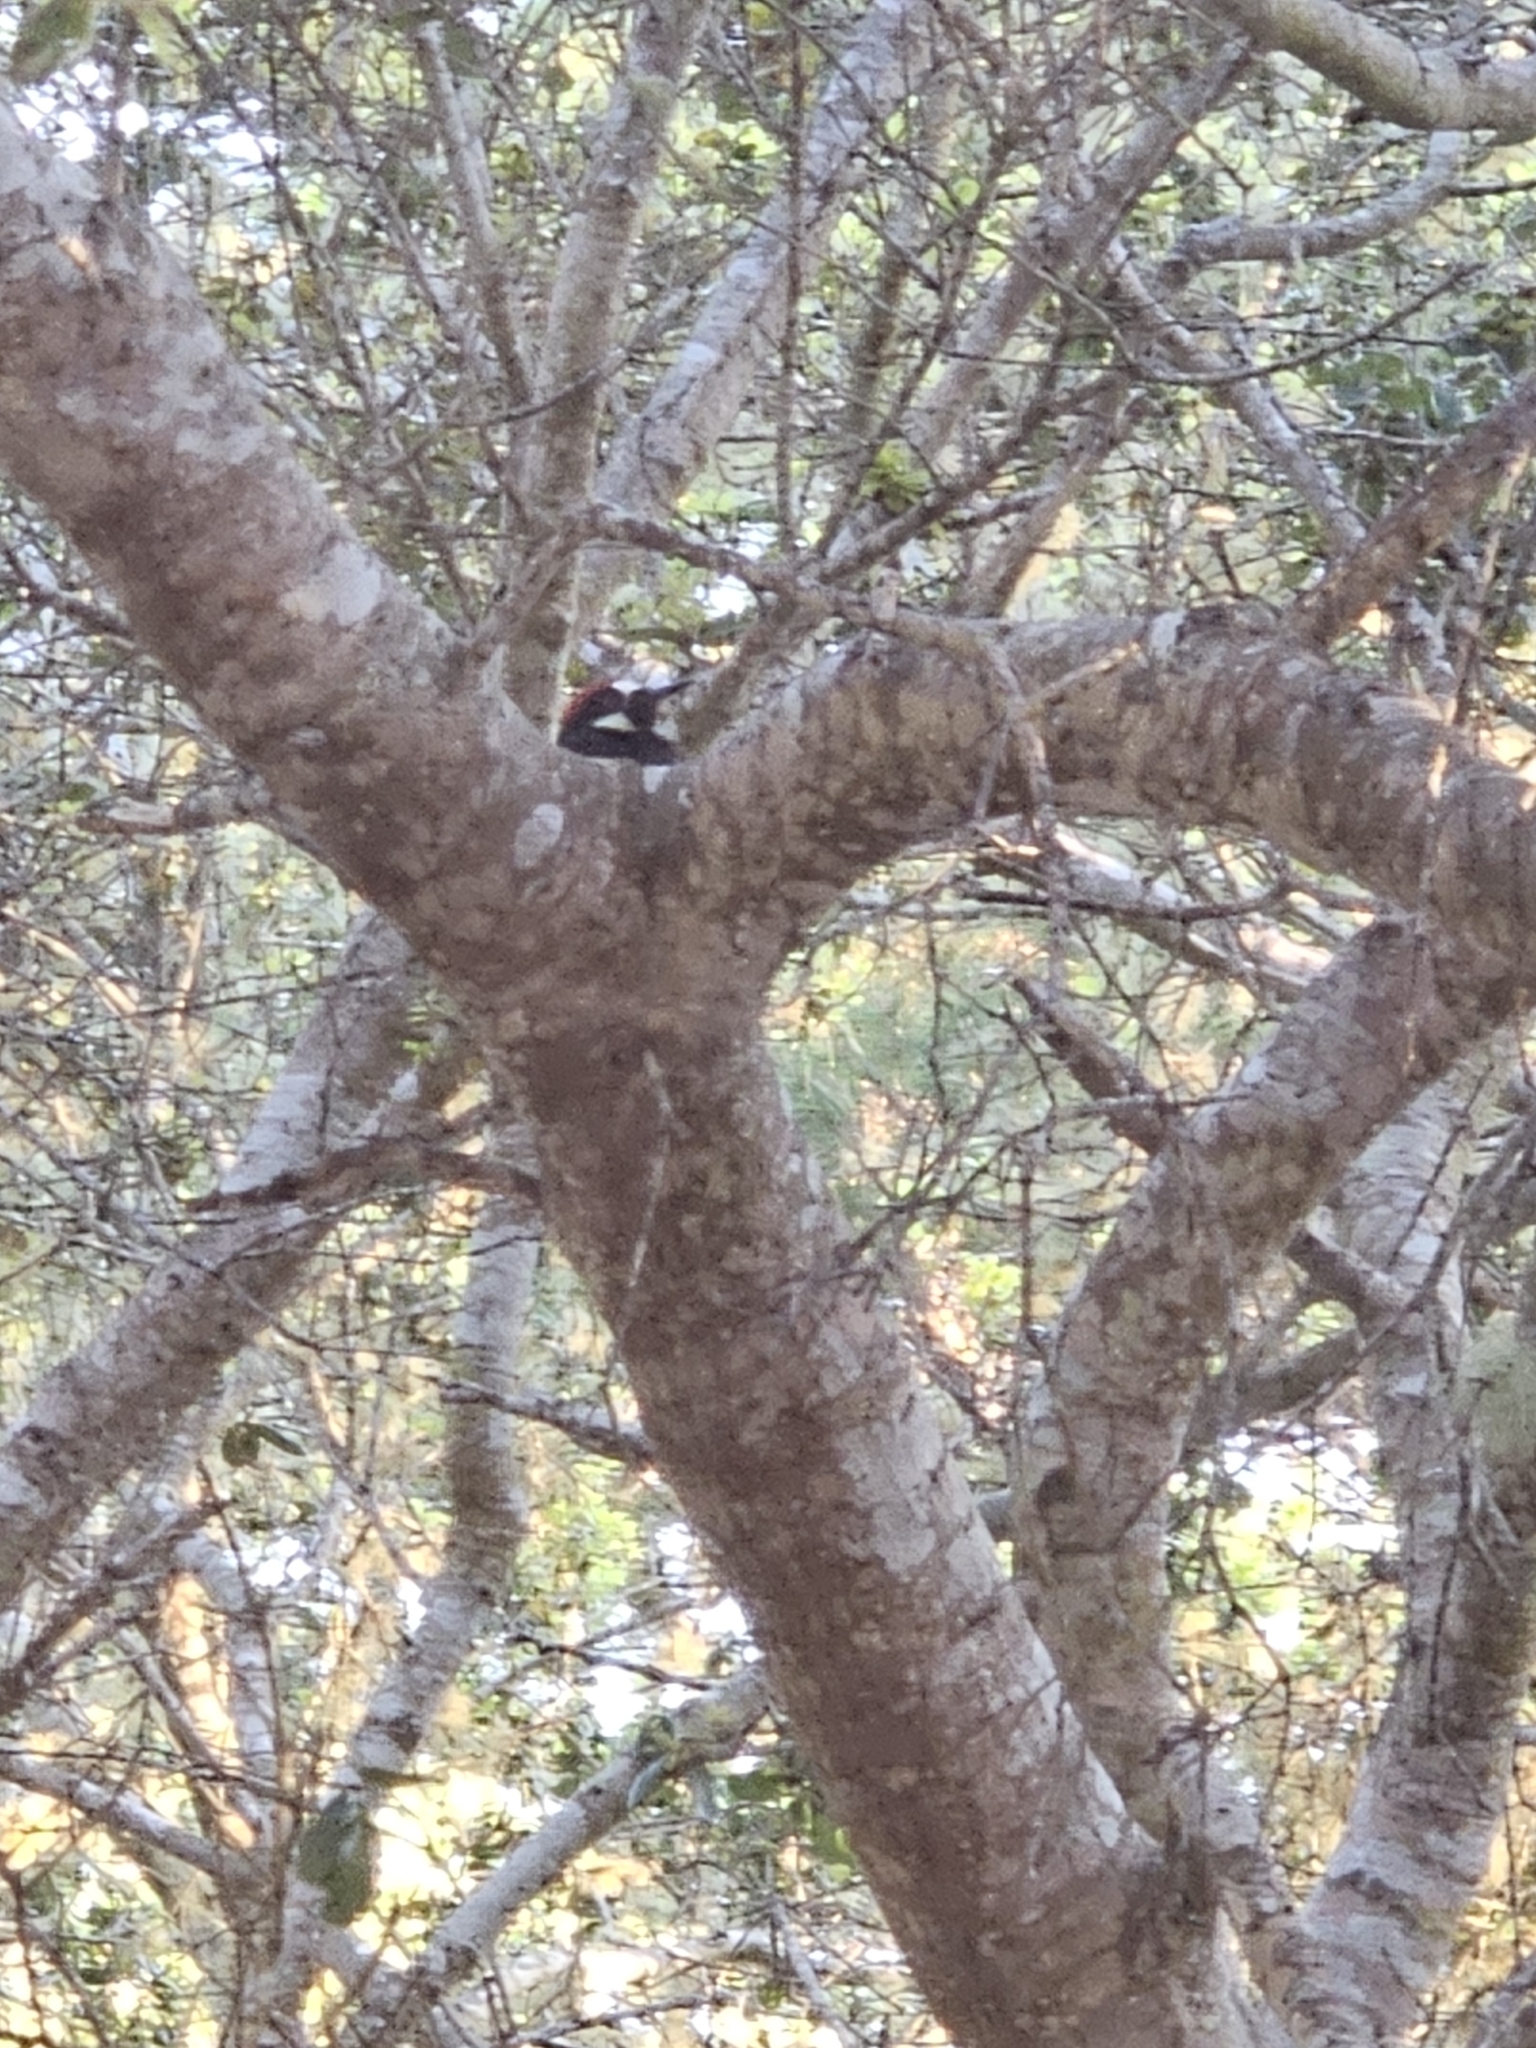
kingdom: Animalia
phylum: Chordata
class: Aves
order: Piciformes
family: Picidae
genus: Melanerpes
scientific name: Melanerpes formicivorus
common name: Acorn woodpecker
